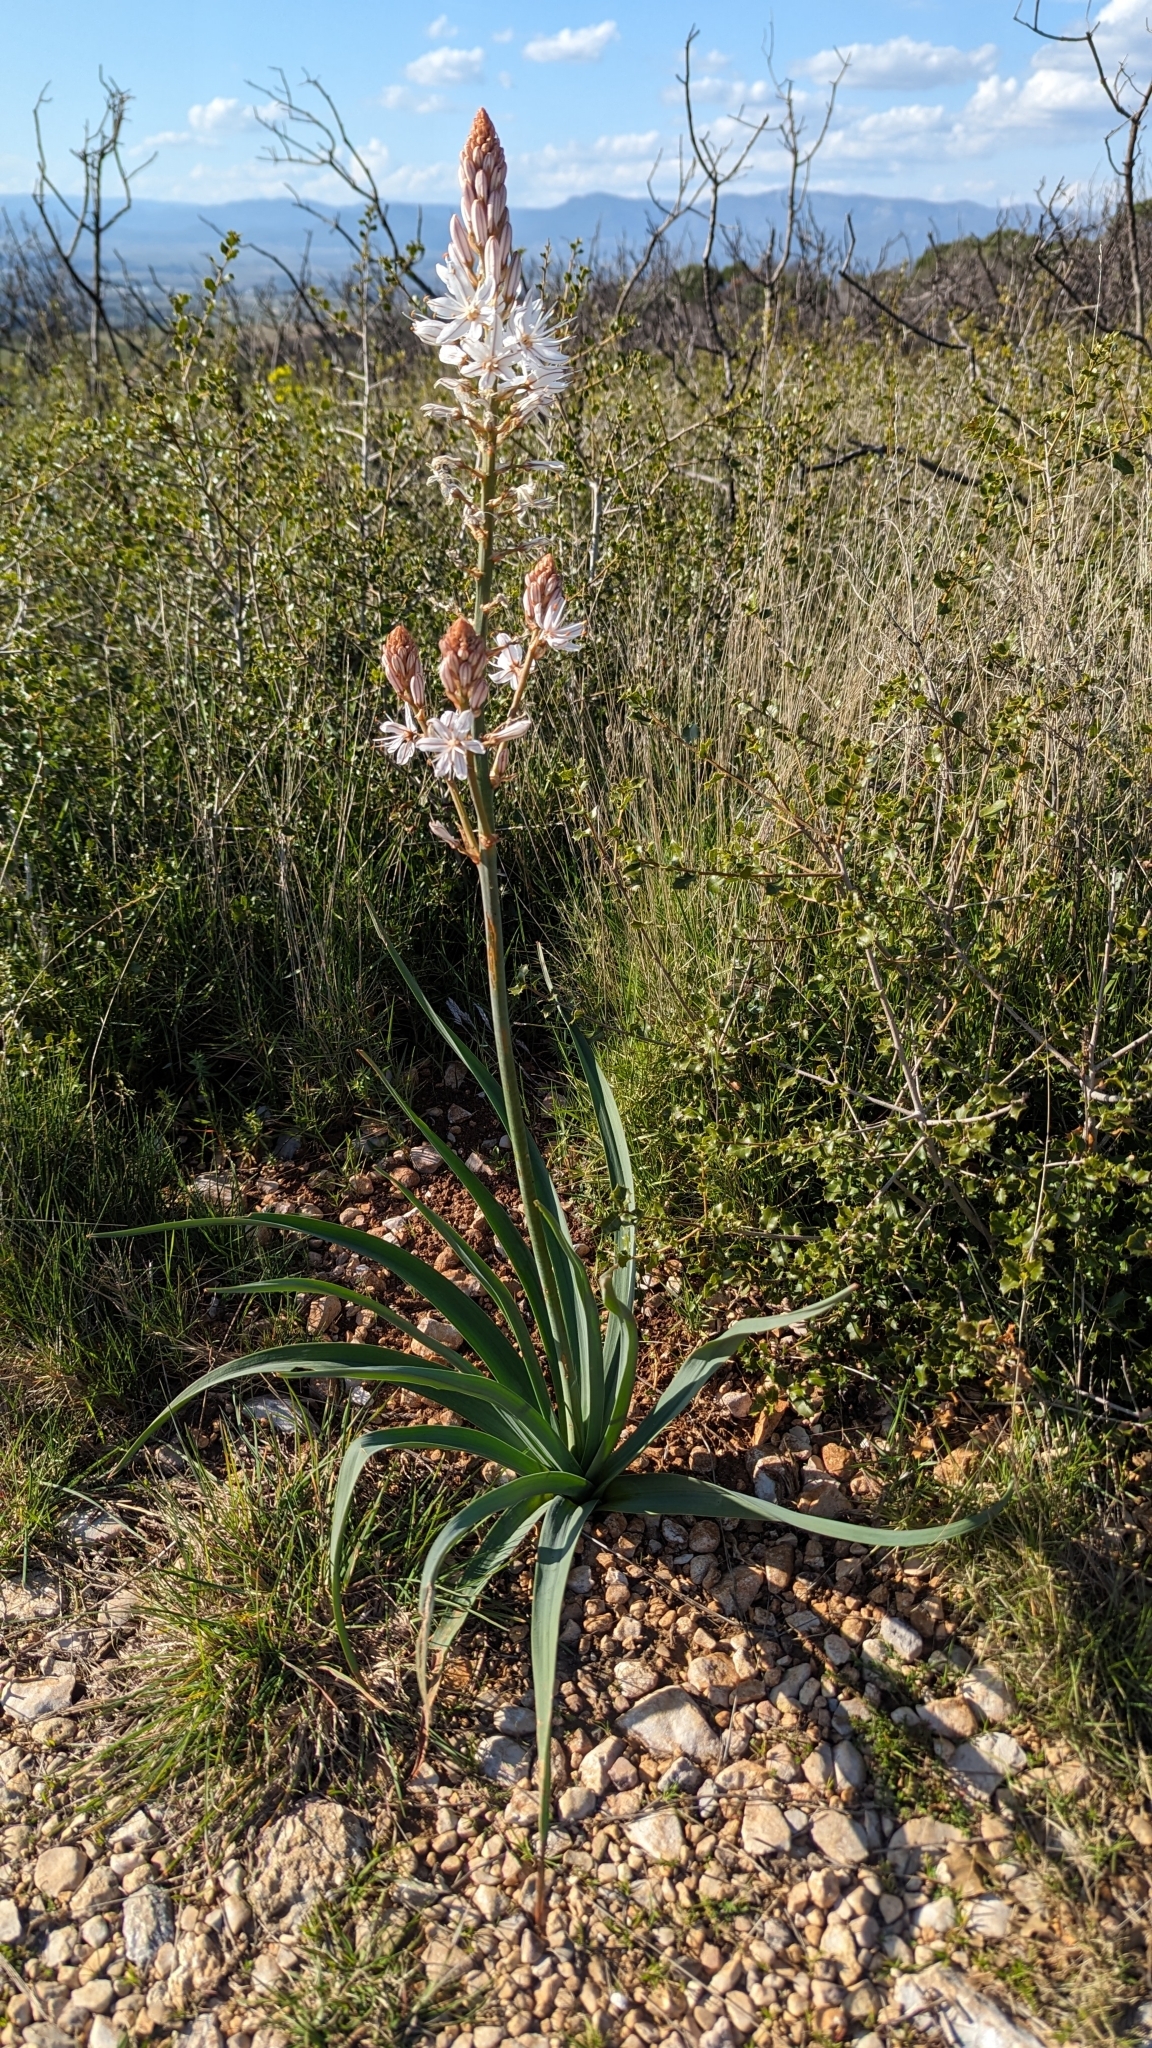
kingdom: Plantae
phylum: Tracheophyta
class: Liliopsida
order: Asparagales
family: Asphodelaceae
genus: Asphodelus
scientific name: Asphodelus cerasifer
